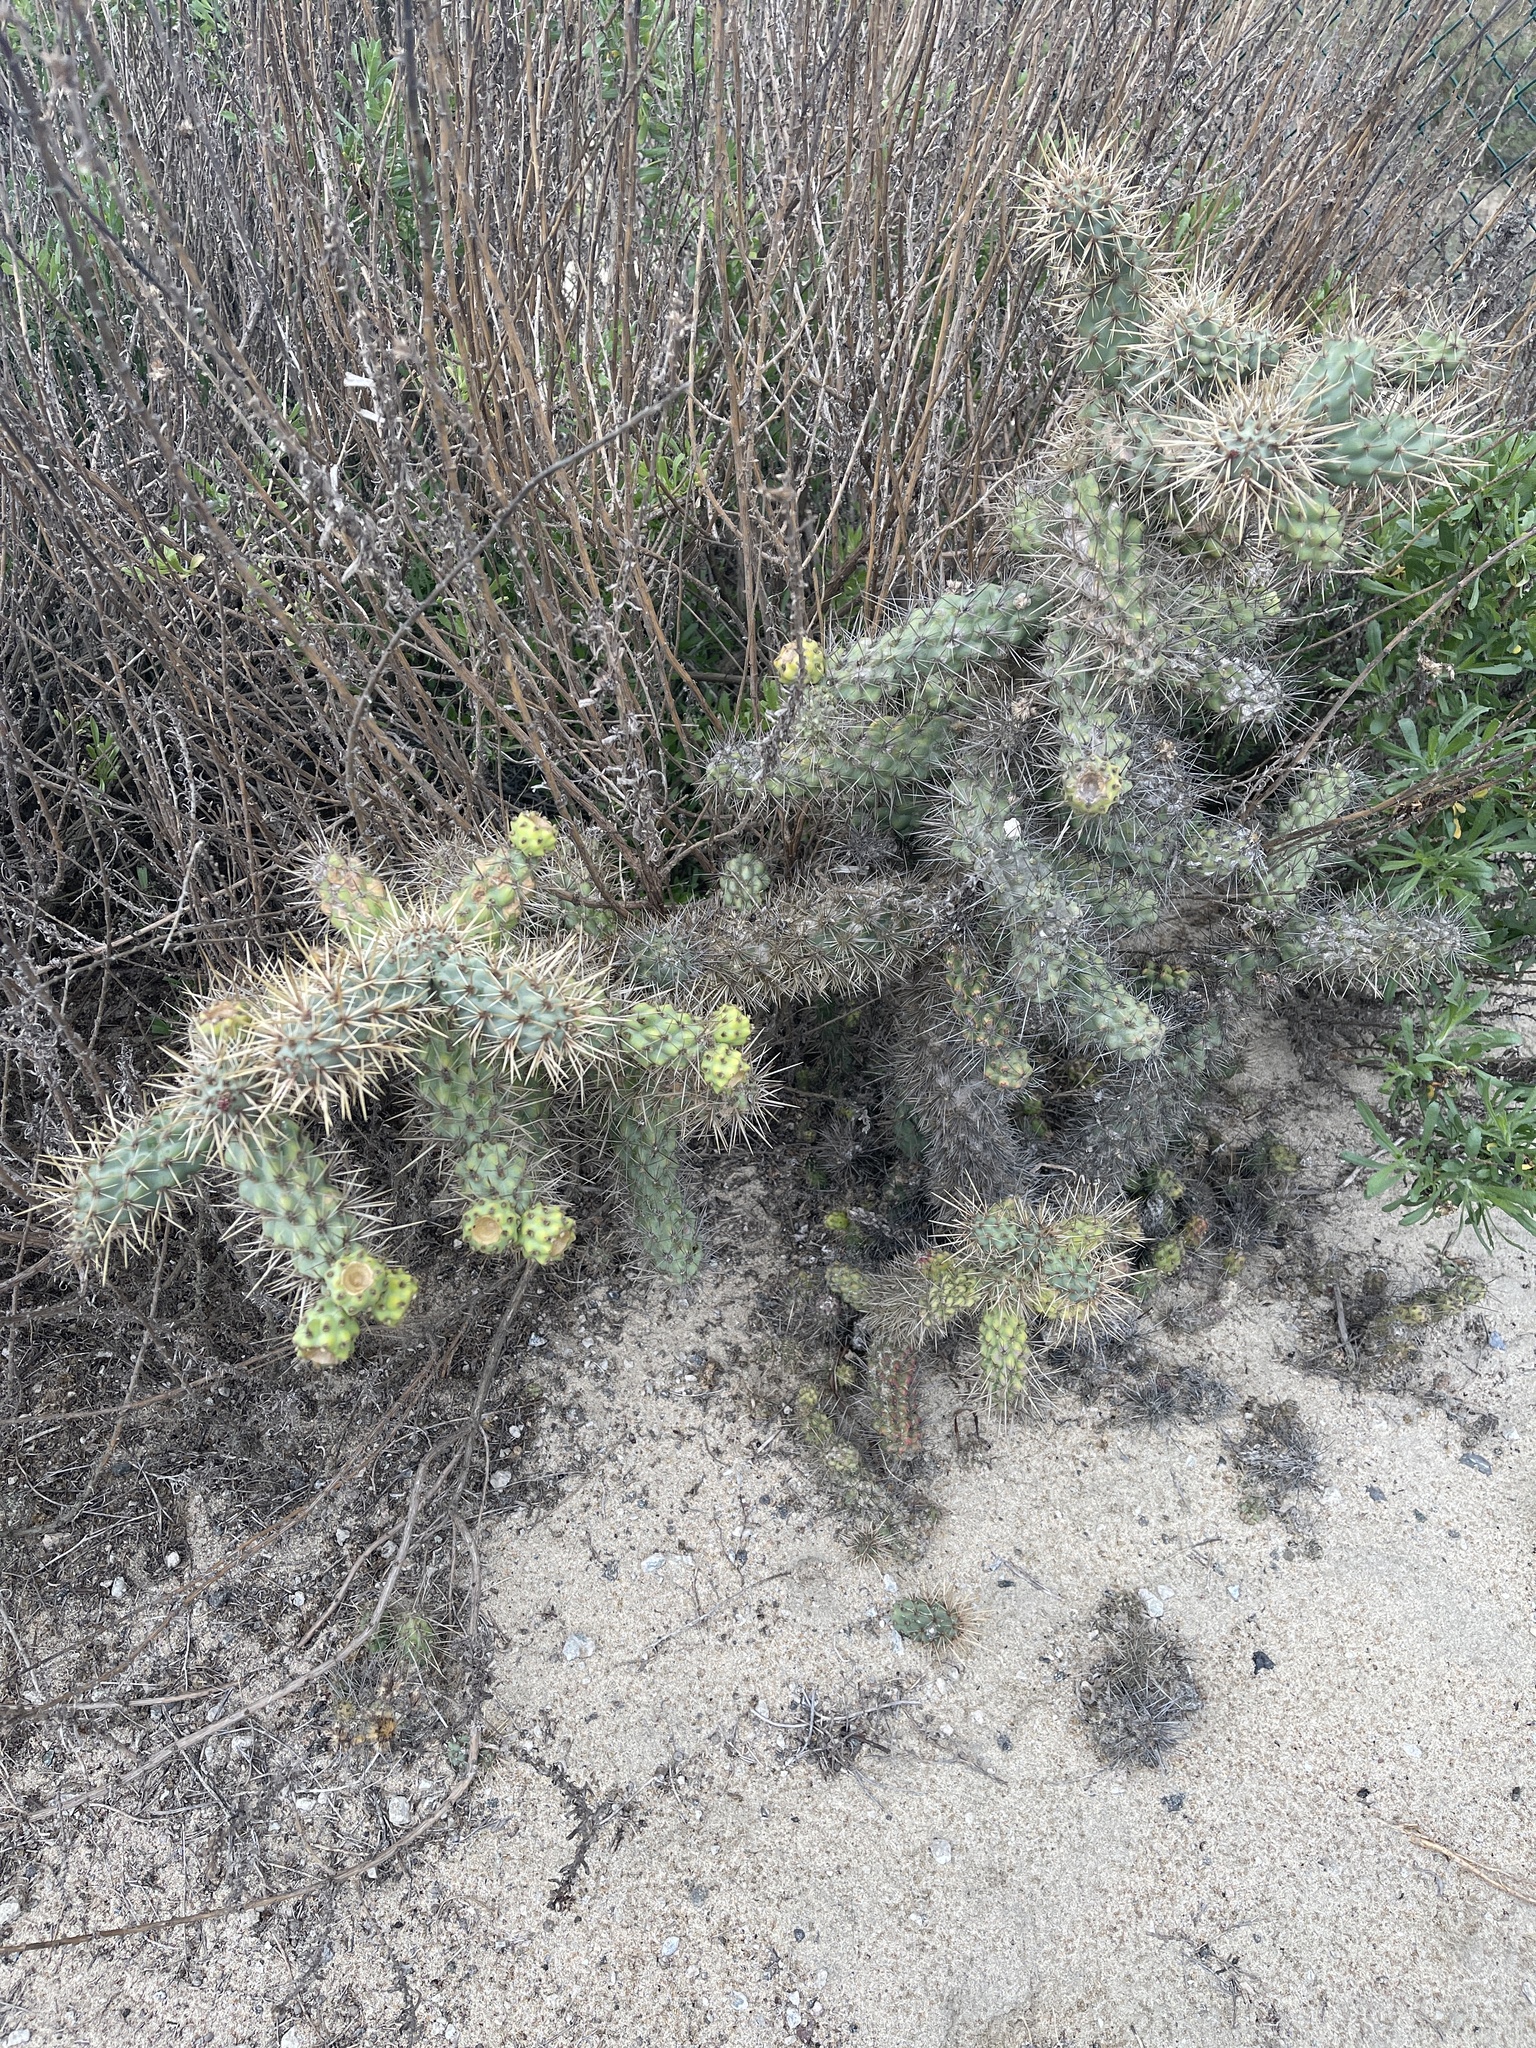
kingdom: Plantae
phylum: Tracheophyta
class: Magnoliopsida
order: Caryophyllales
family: Cactaceae
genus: Cylindropuntia
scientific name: Cylindropuntia prolifera
